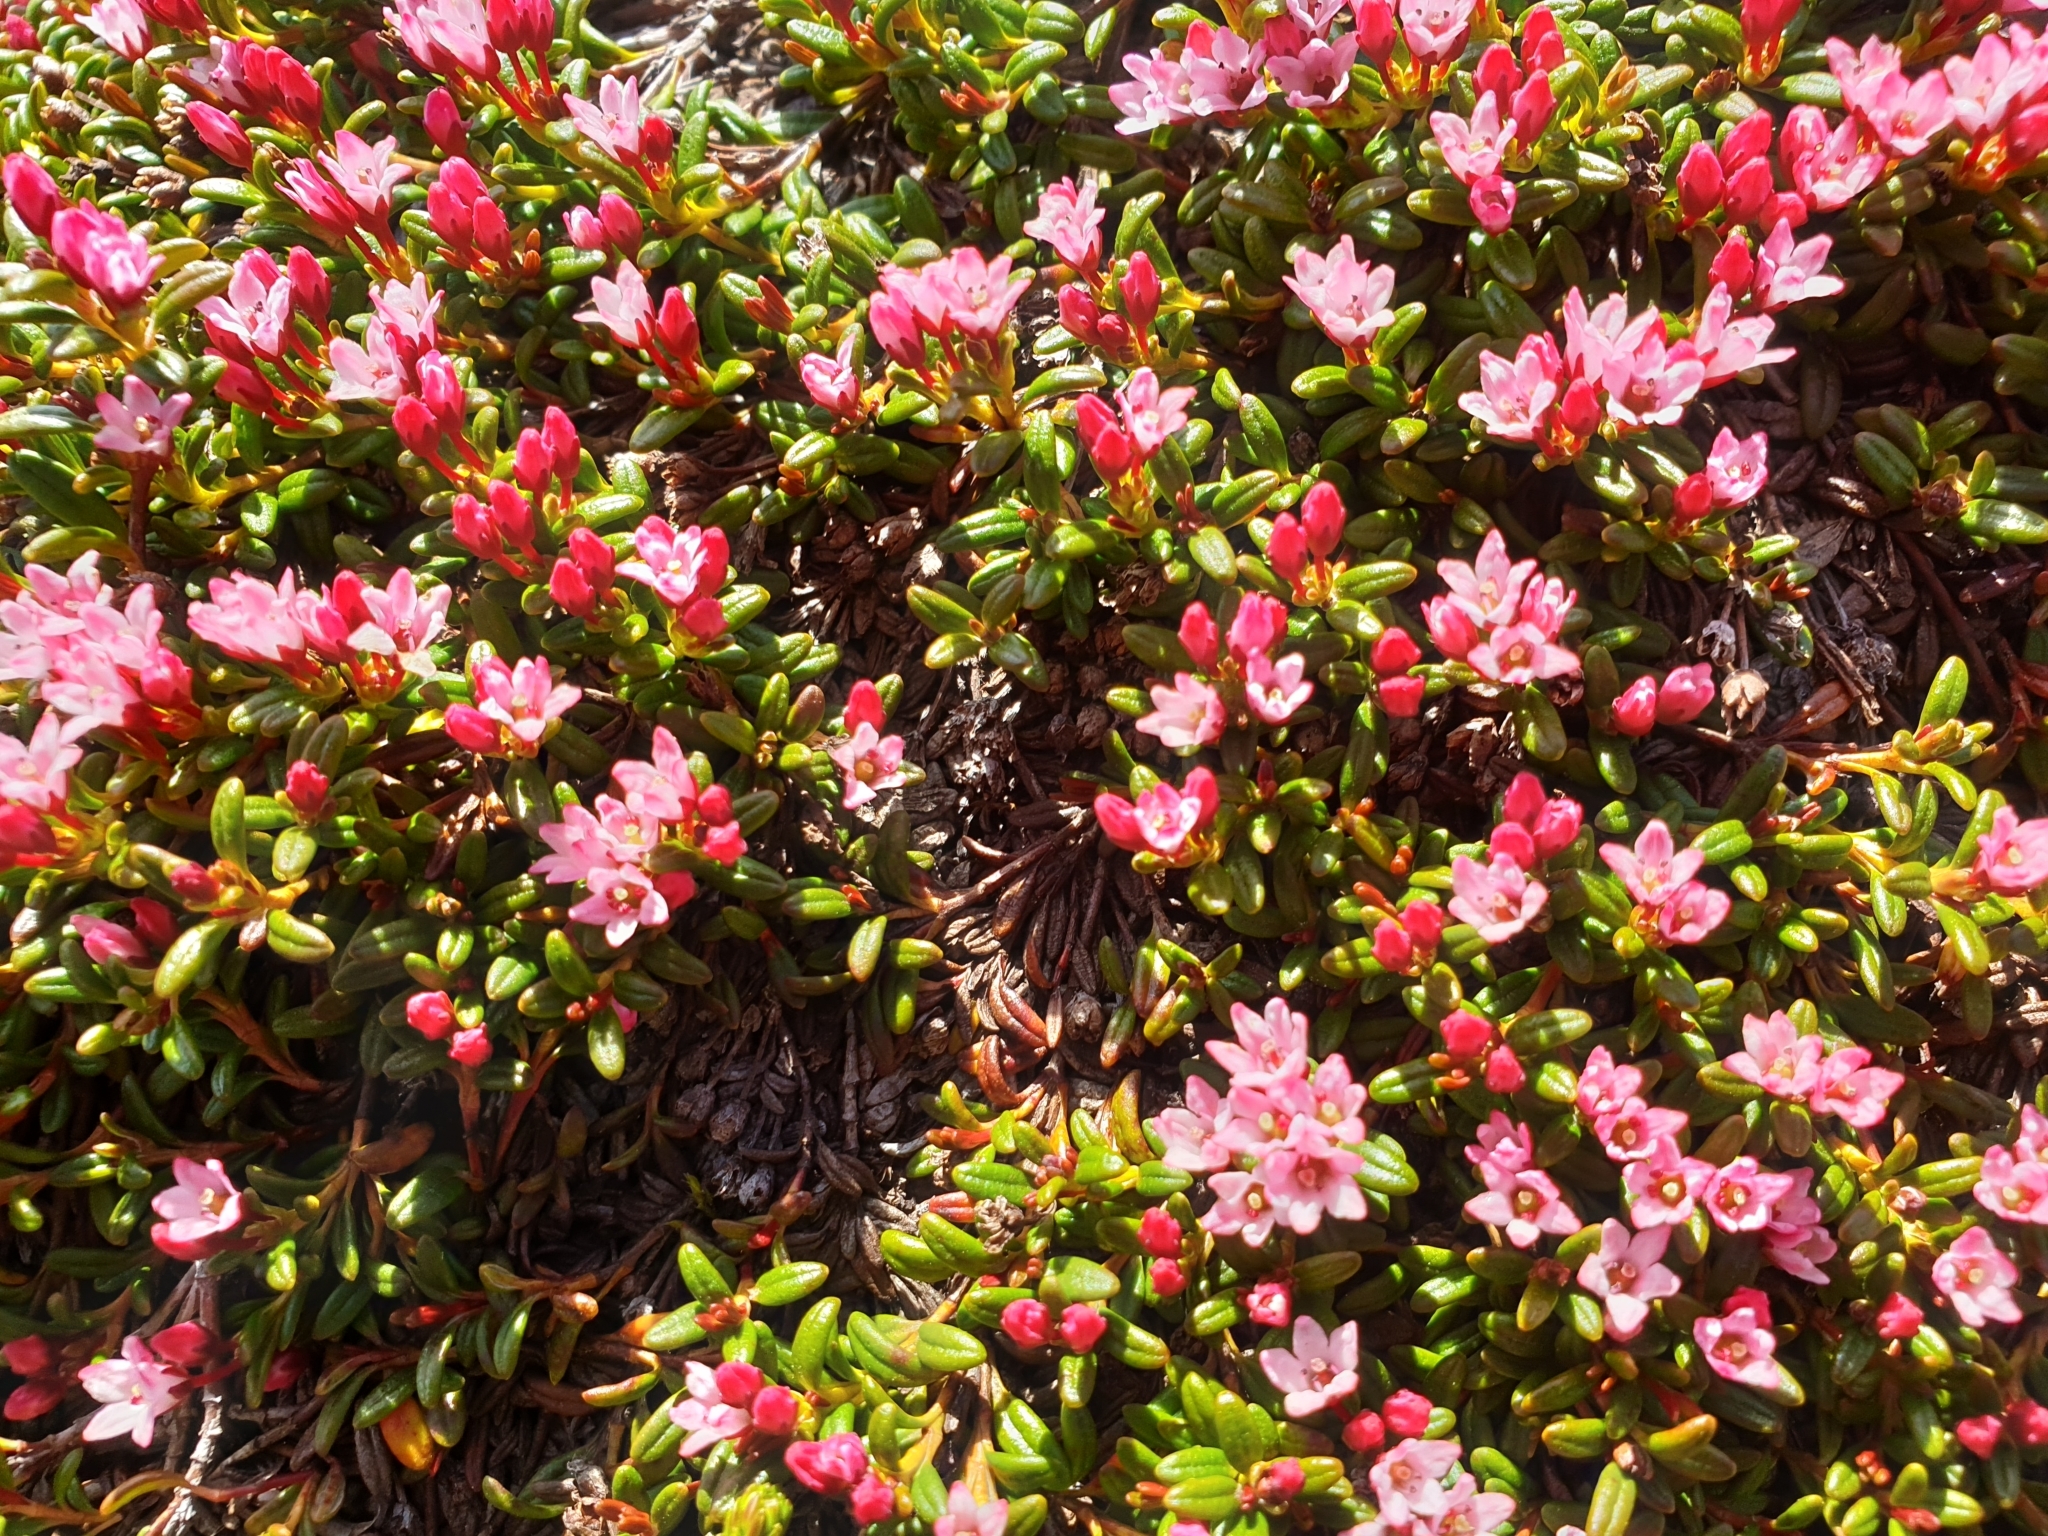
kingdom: Plantae
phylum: Tracheophyta
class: Magnoliopsida
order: Ericales
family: Ericaceae
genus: Kalmia
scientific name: Kalmia procumbens
